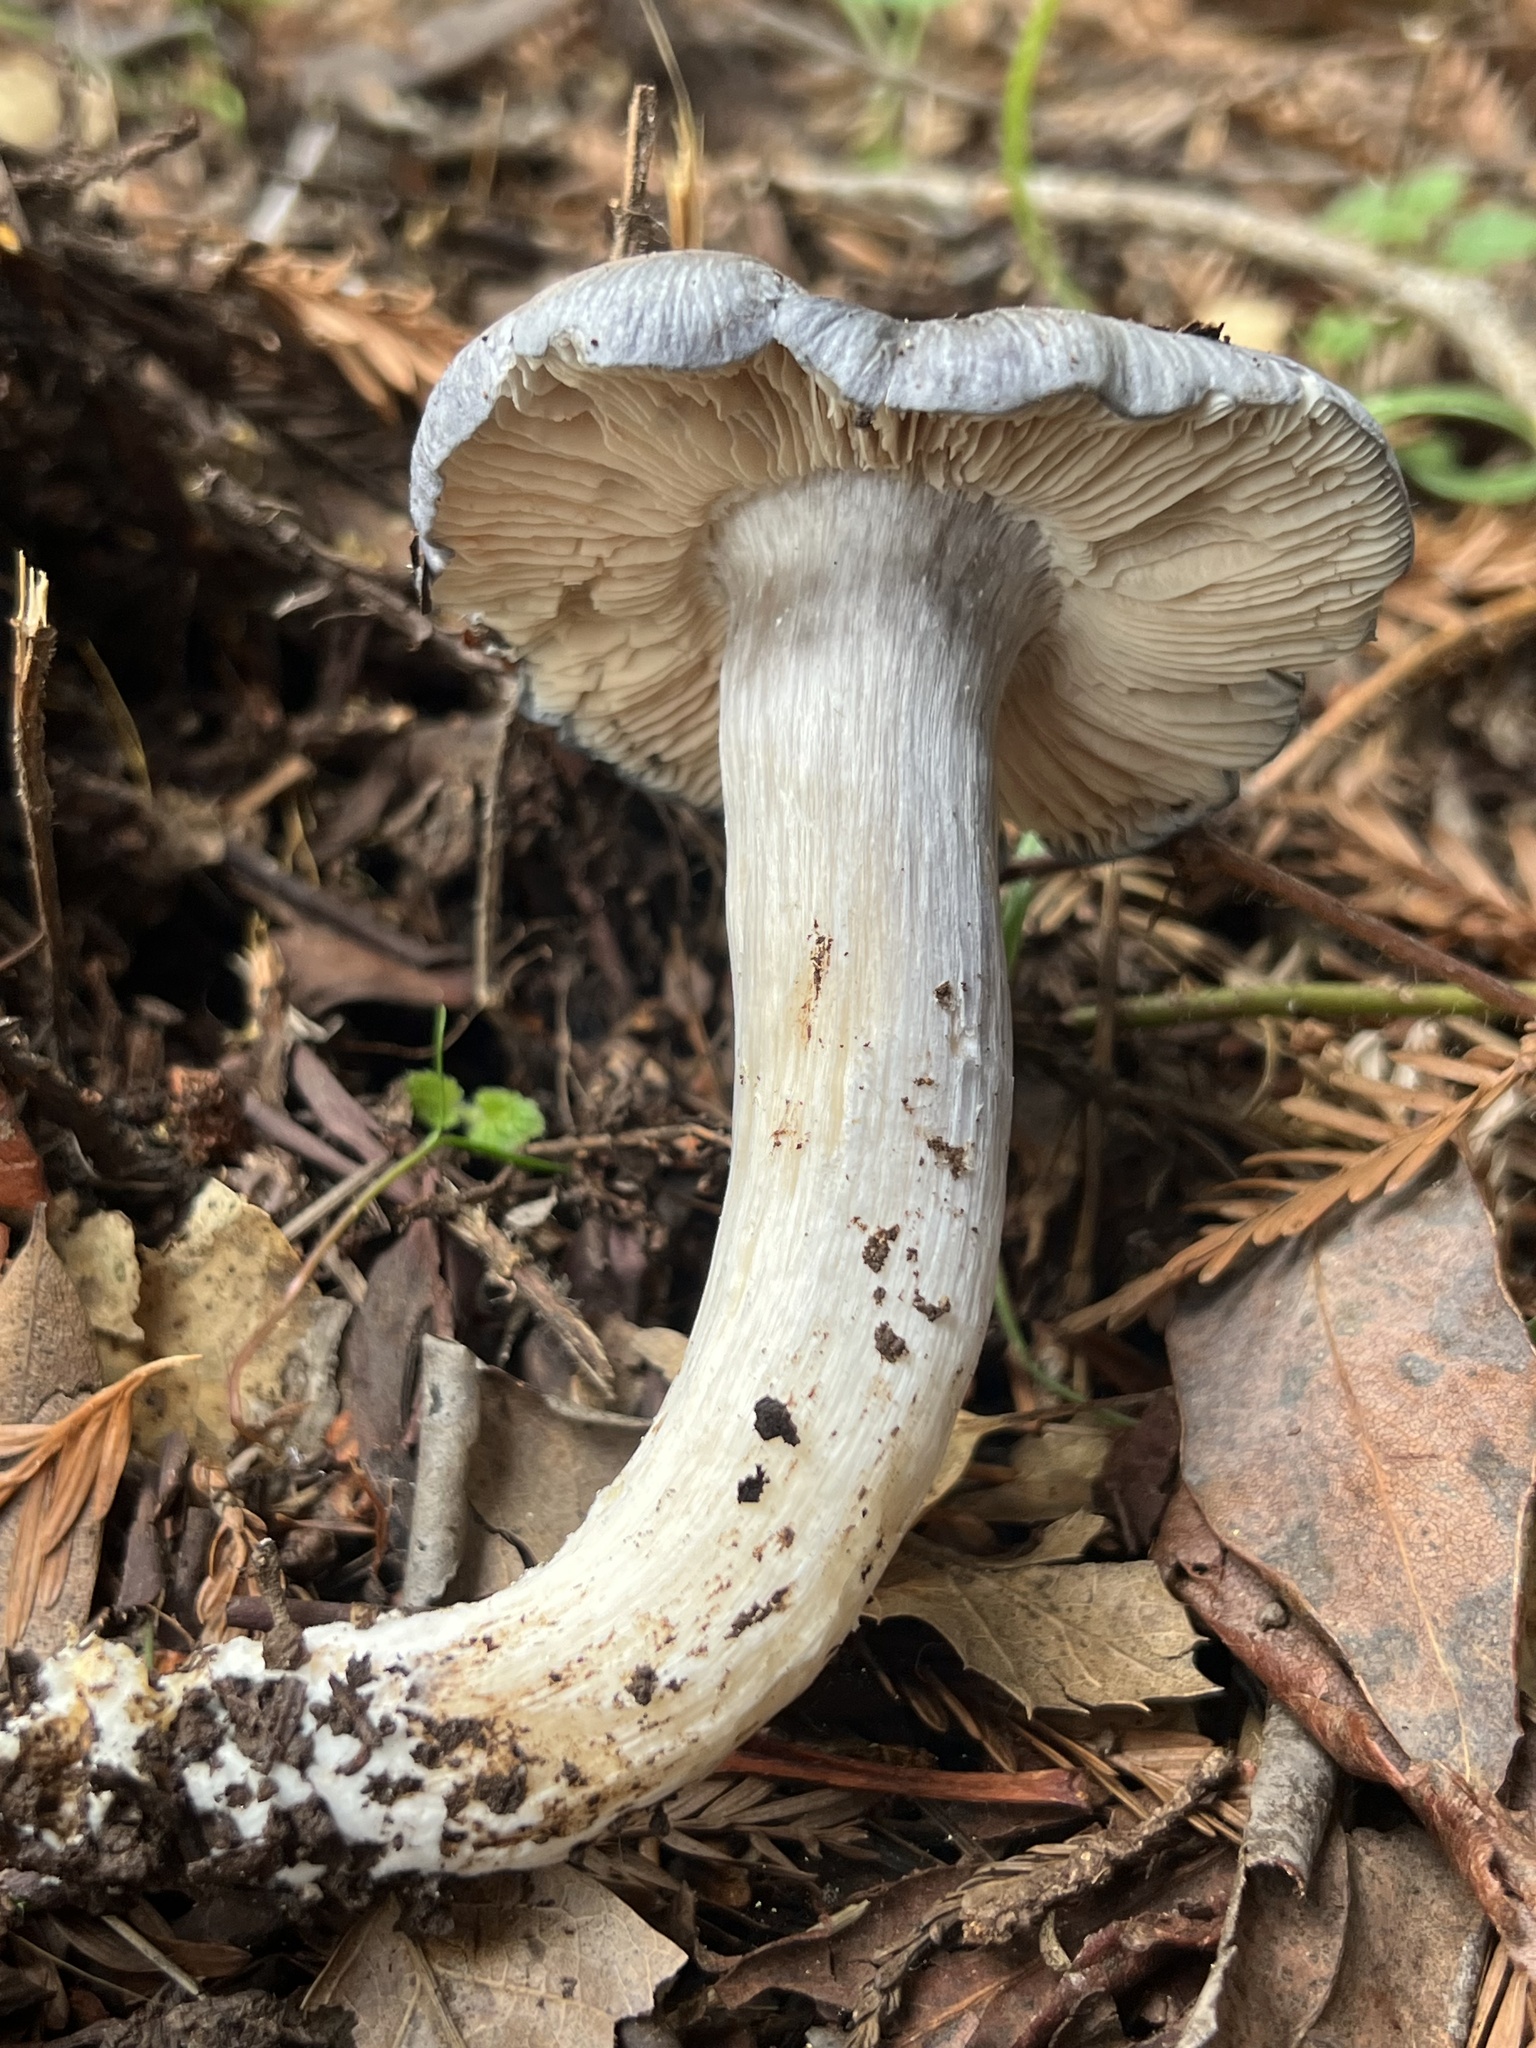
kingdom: Fungi
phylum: Basidiomycota
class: Agaricomycetes
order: Agaricales
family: Entolomataceae
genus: Entoloma
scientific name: Entoloma medianox
